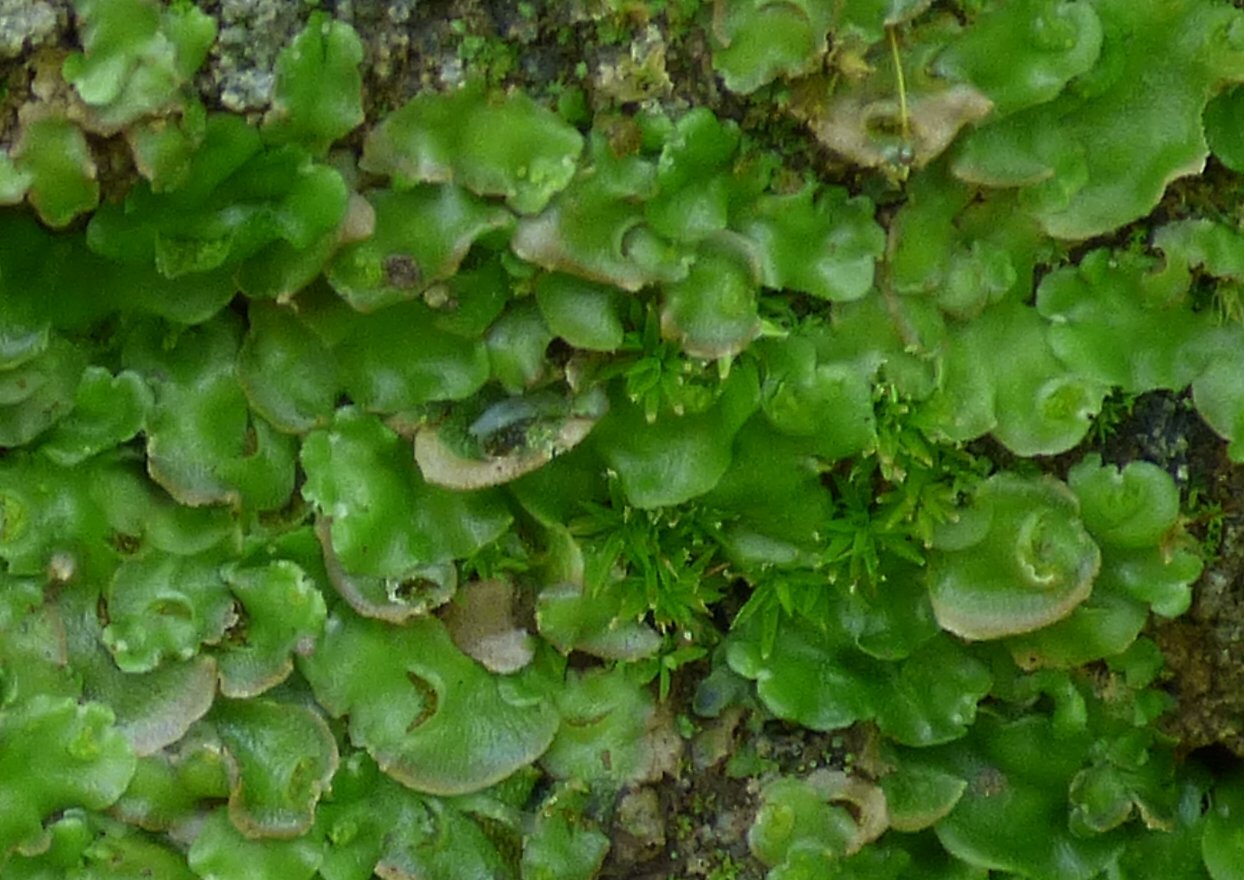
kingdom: Plantae
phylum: Marchantiophyta
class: Marchantiopsida
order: Lunulariales
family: Lunulariaceae
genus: Lunularia
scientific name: Lunularia cruciata
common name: Crescent-cup liverwort
